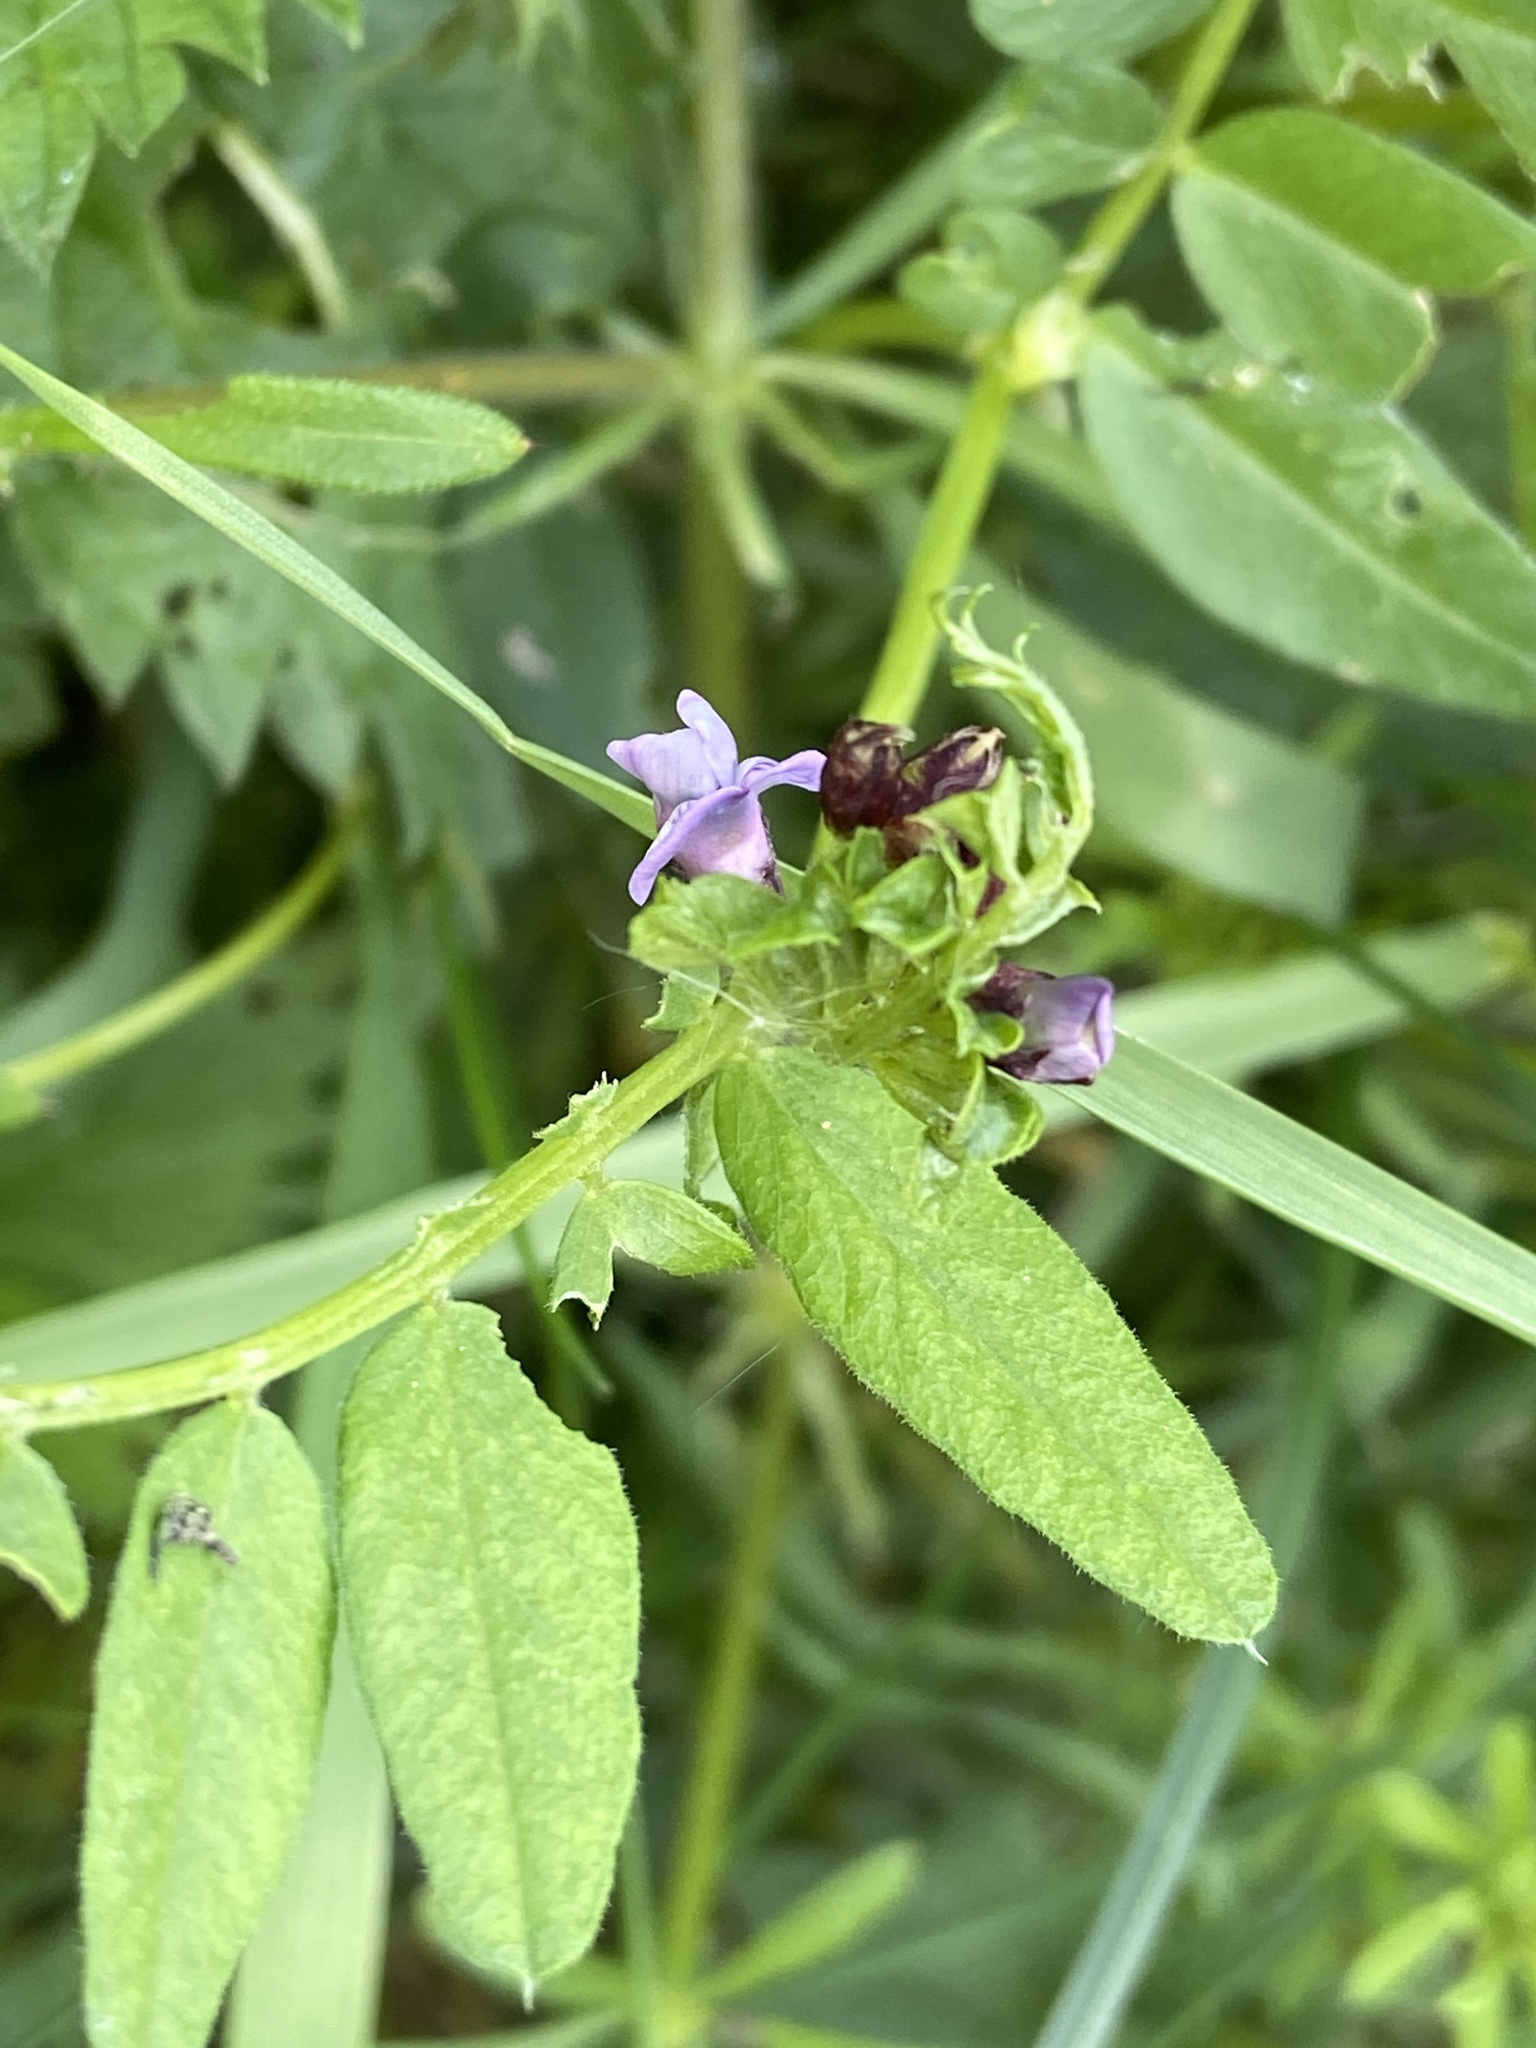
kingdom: Plantae
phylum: Tracheophyta
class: Magnoliopsida
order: Fabales
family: Fabaceae
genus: Vicia
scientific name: Vicia sepium
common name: Bush vetch
